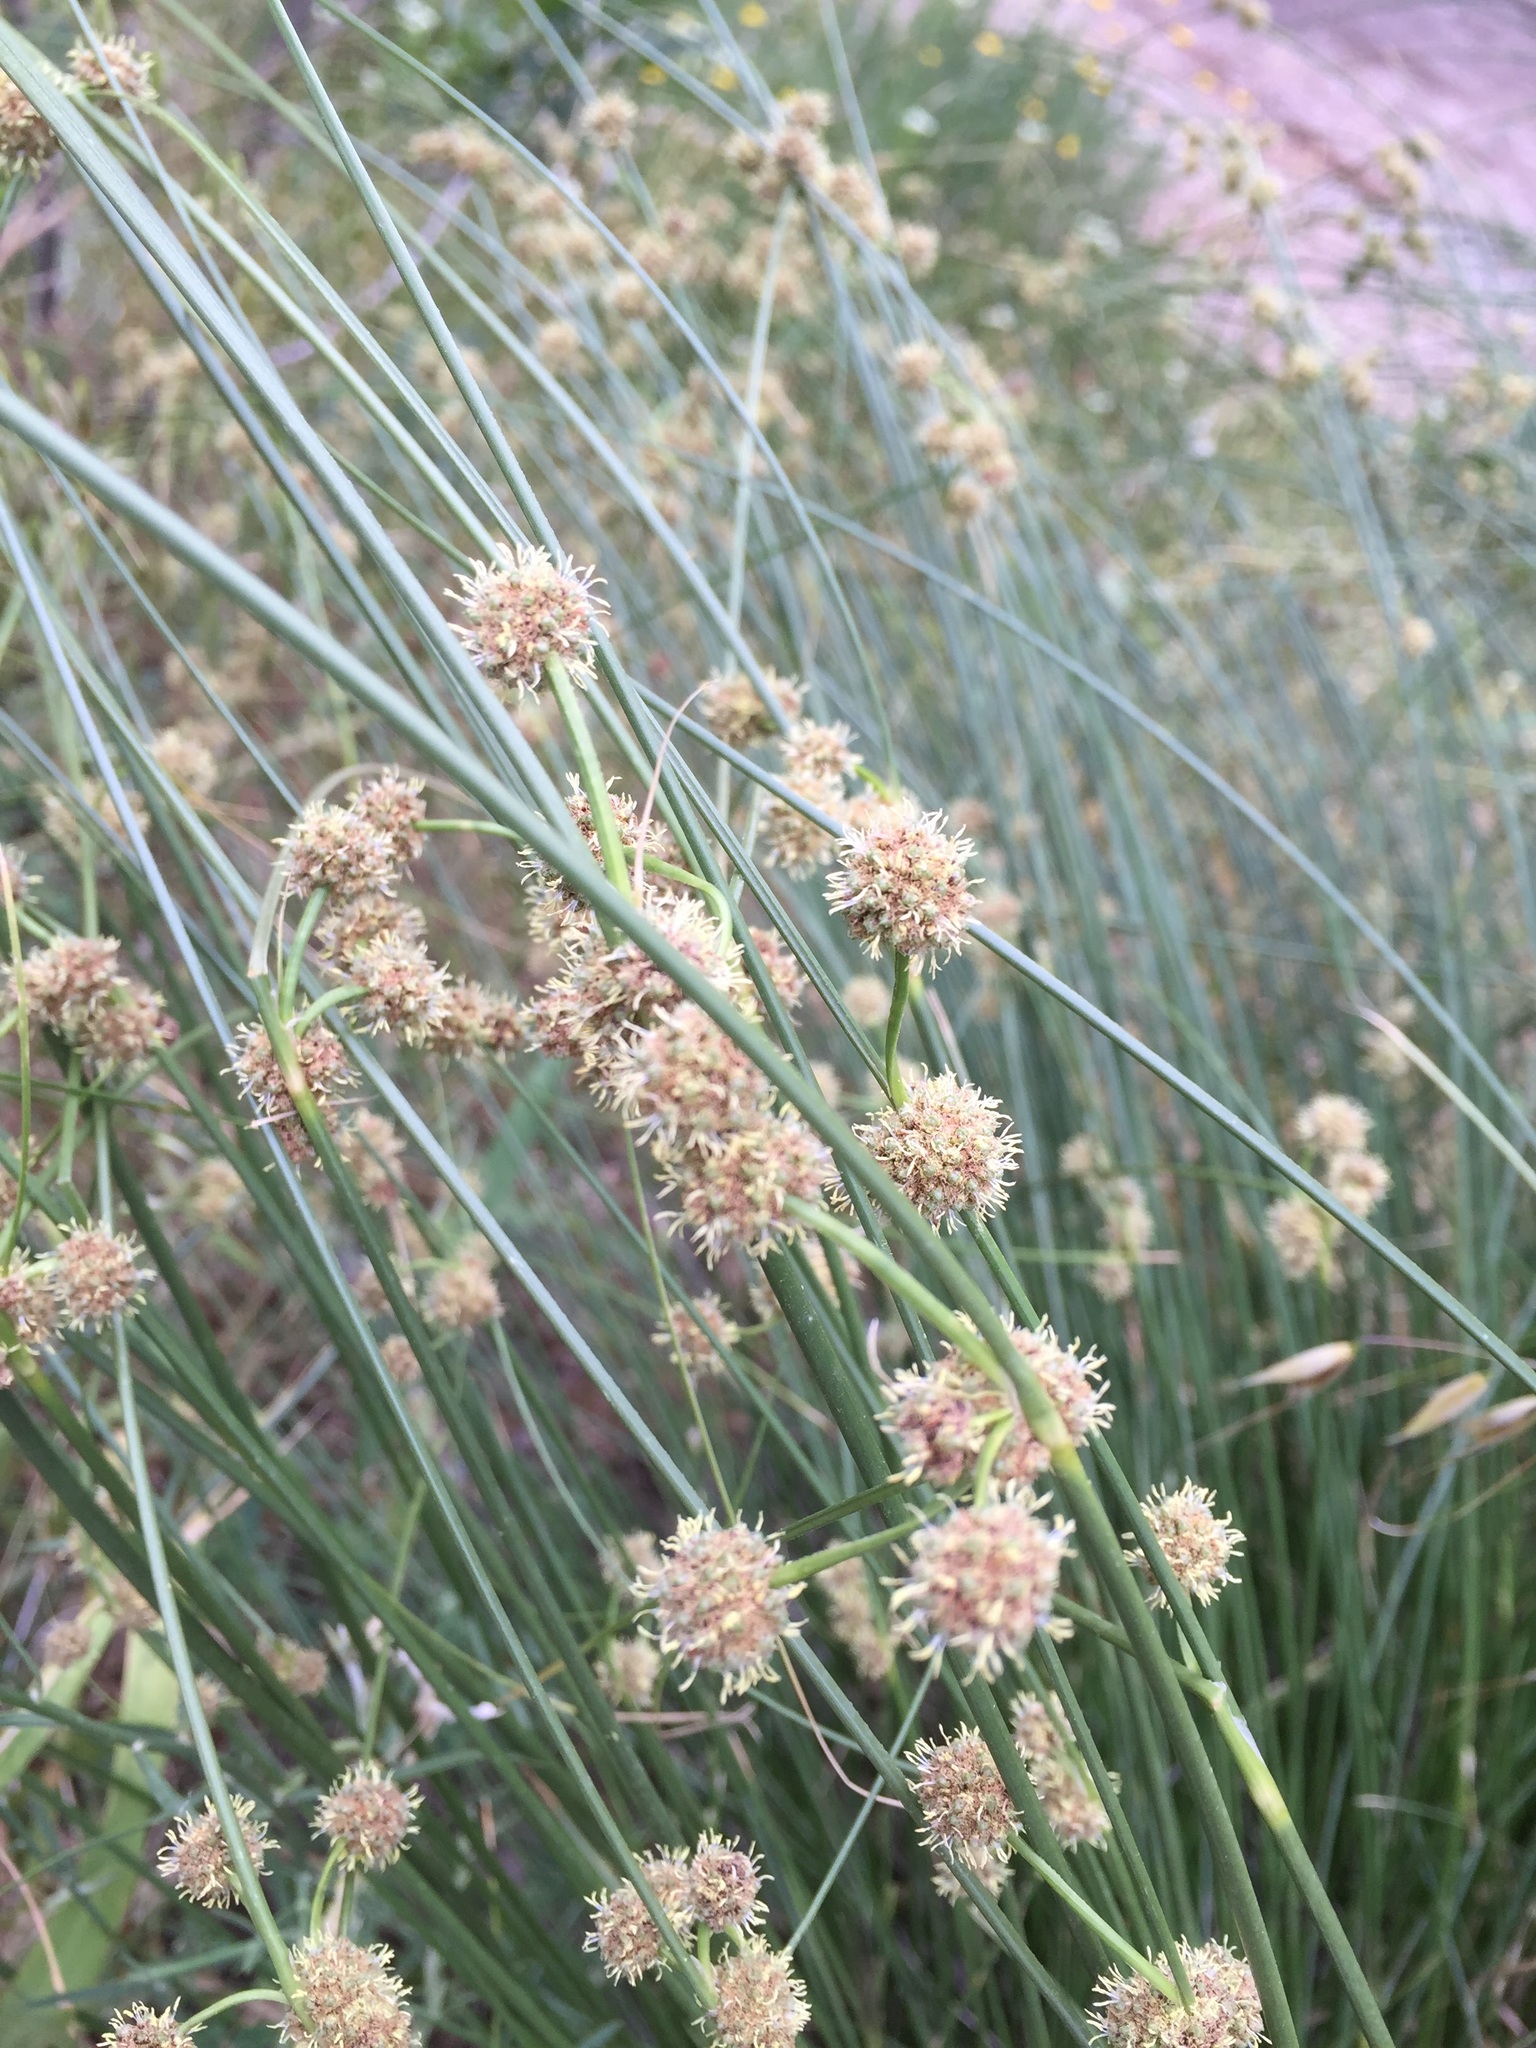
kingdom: Plantae
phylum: Tracheophyta
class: Liliopsida
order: Poales
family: Cyperaceae
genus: Scirpoides
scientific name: Scirpoides holoschoenus
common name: Round-headed club-rush
